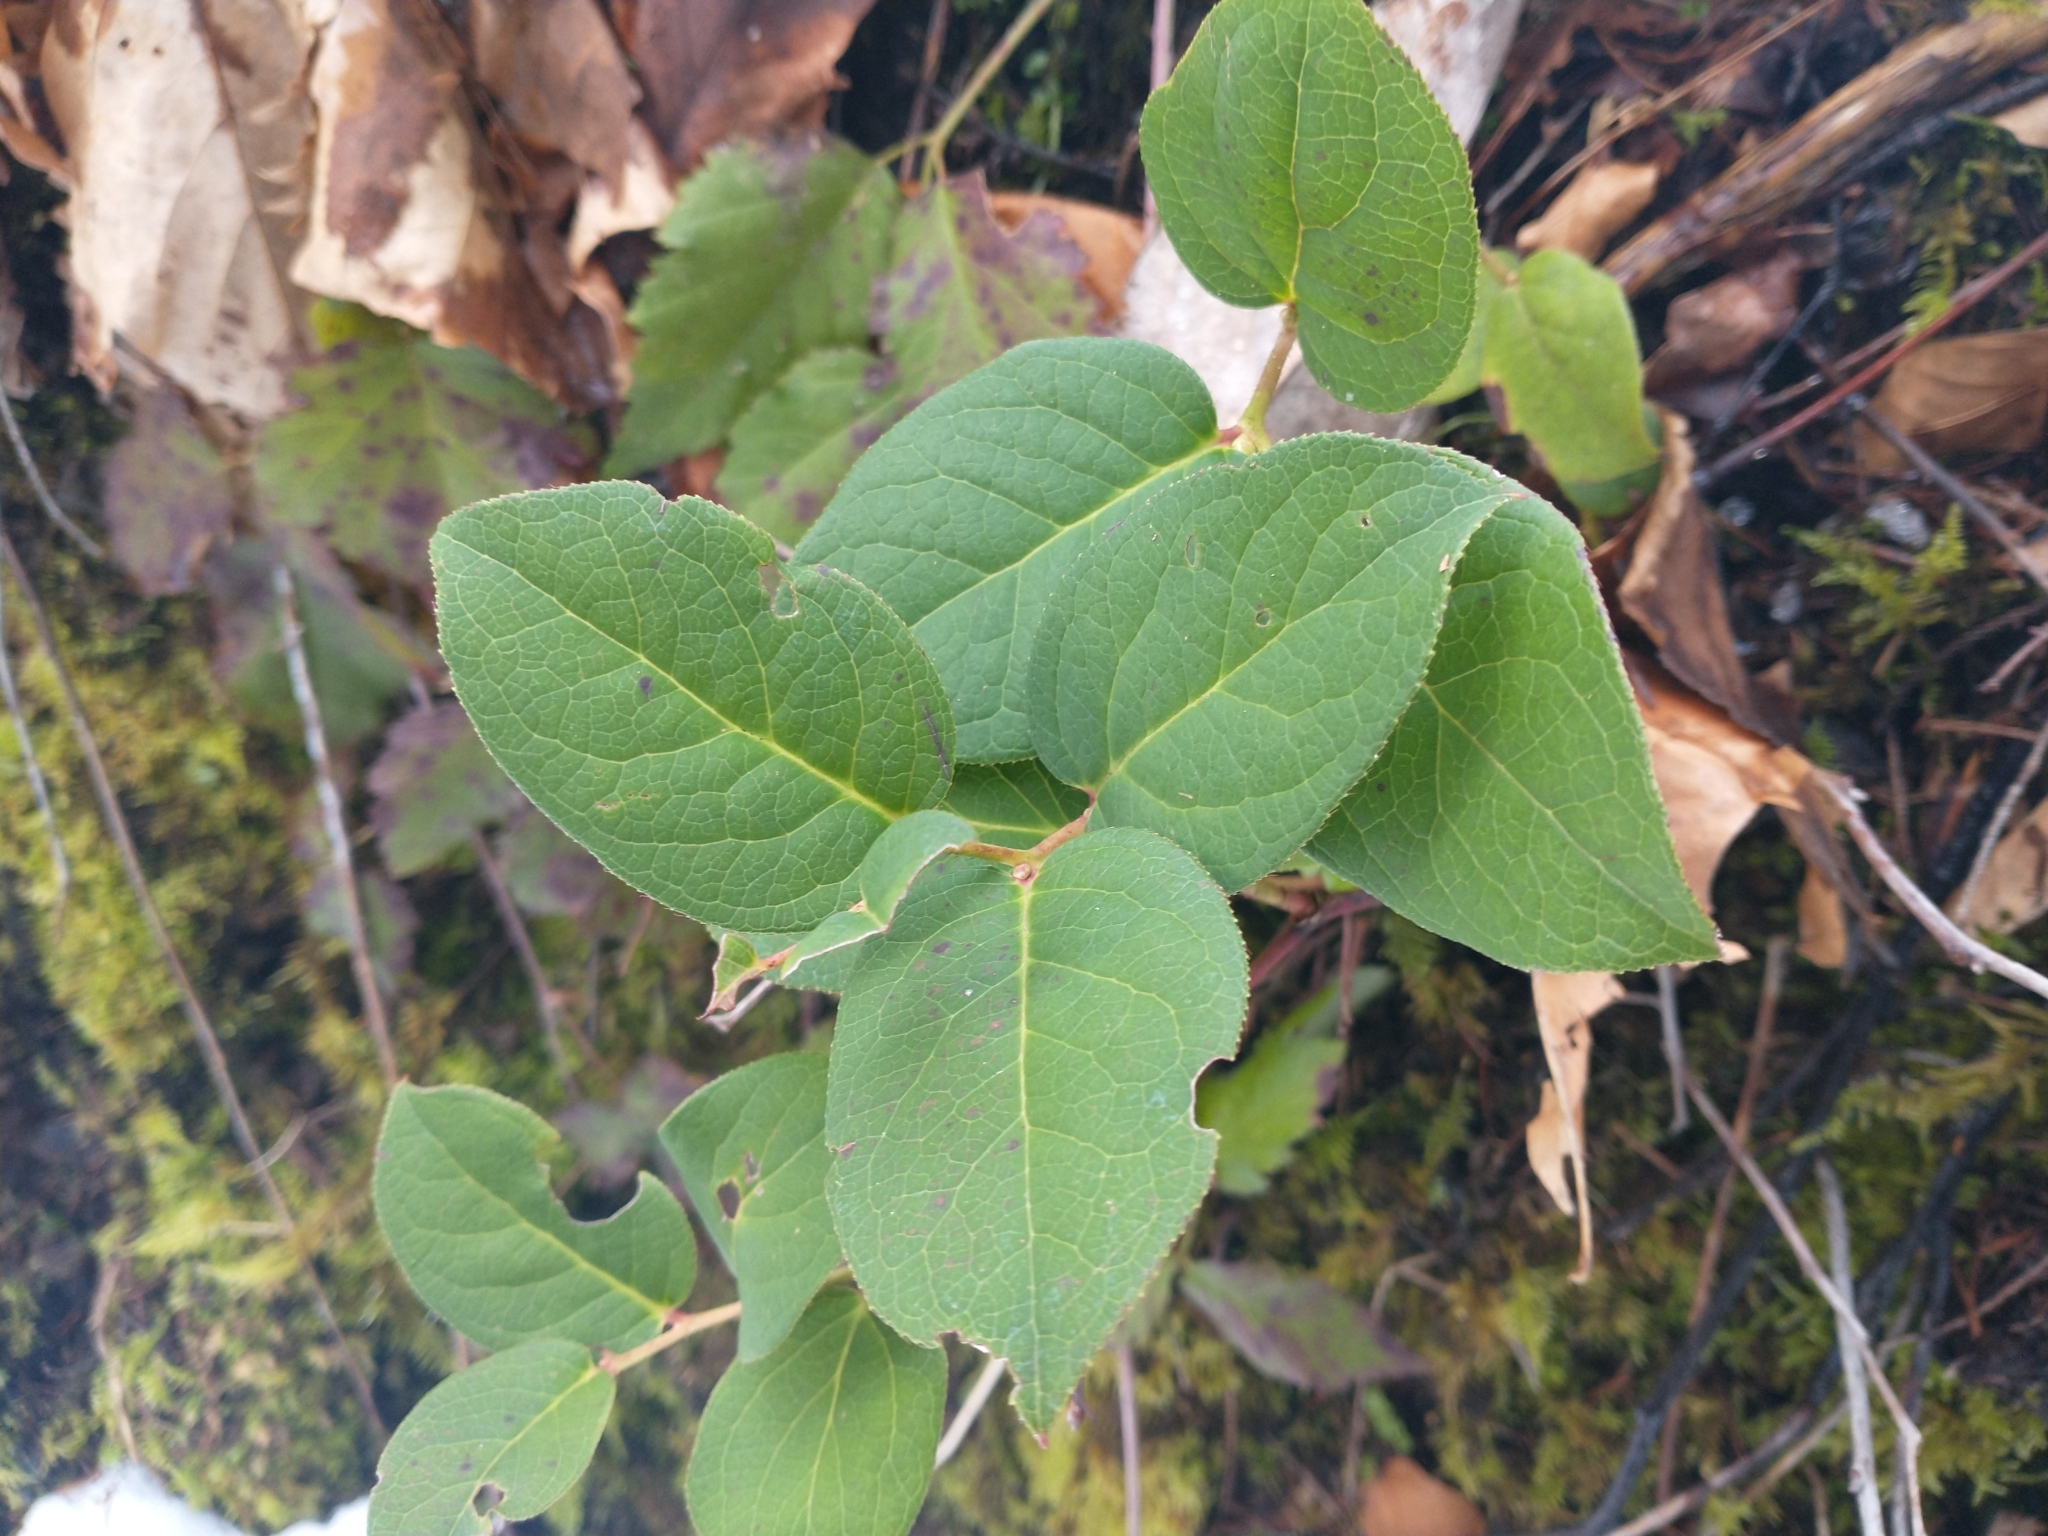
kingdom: Plantae
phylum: Tracheophyta
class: Magnoliopsida
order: Ericales
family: Ericaceae
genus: Gaultheria
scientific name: Gaultheria shallon
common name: Shallon
